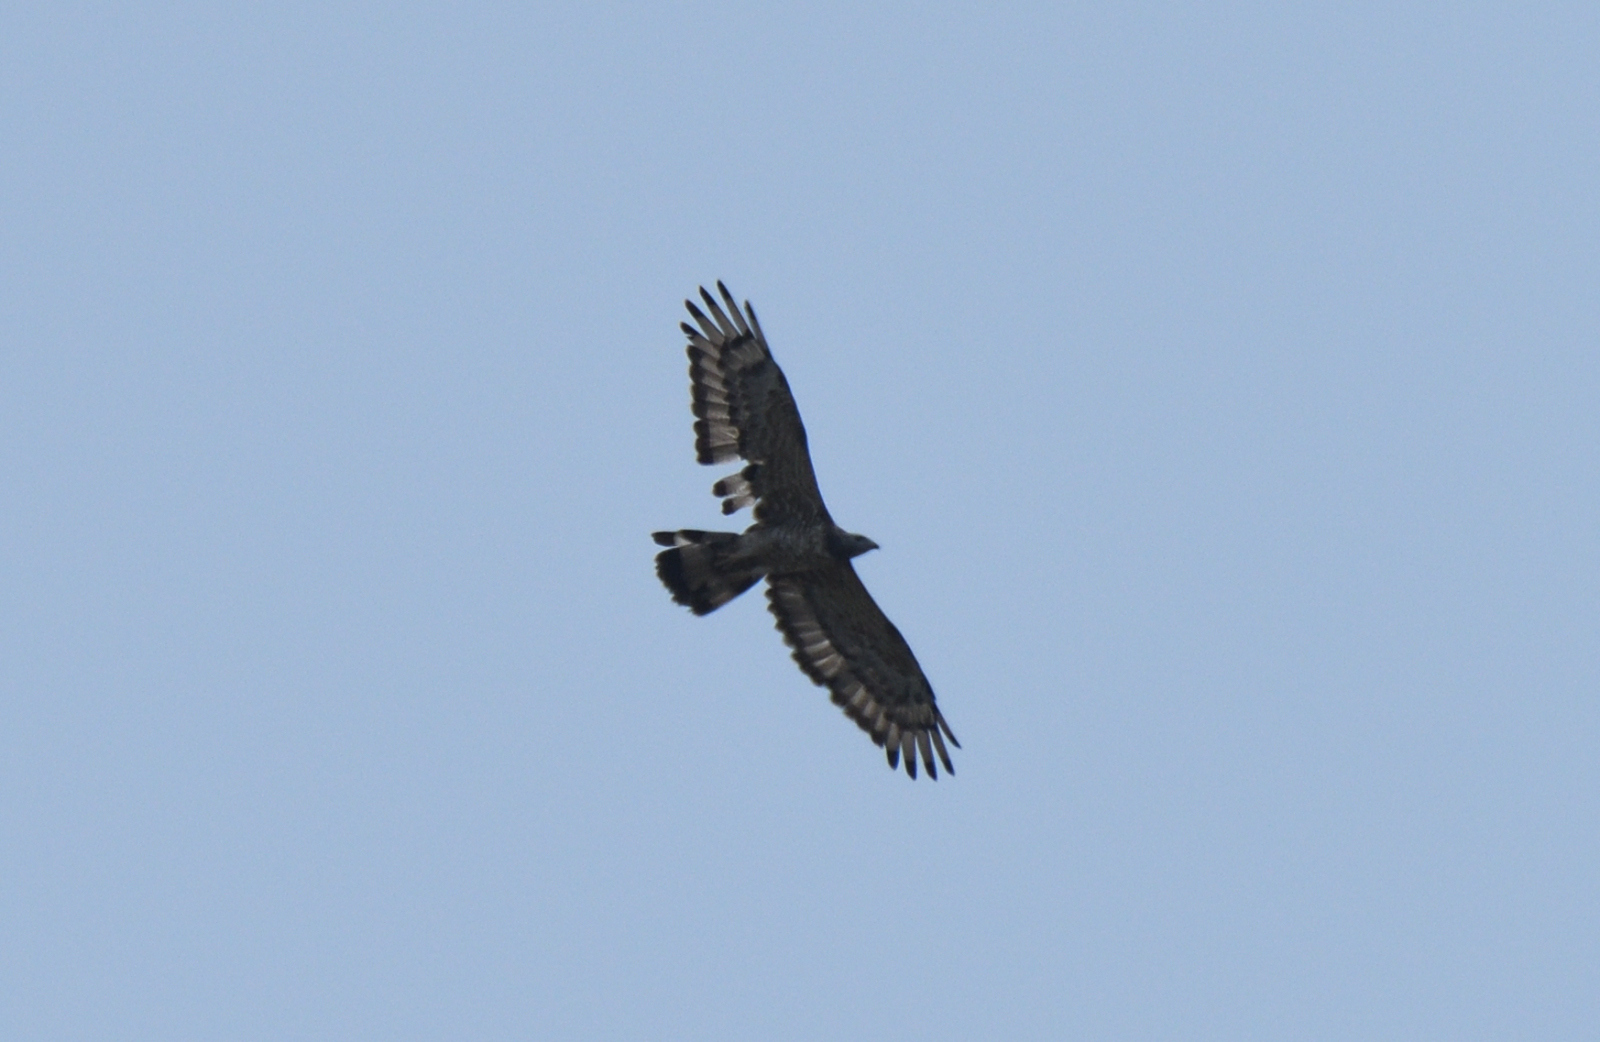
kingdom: Animalia
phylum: Chordata
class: Aves
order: Accipitriformes
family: Accipitridae
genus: Pernis
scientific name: Pernis ptilorhynchus
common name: Crested honey buzzard
